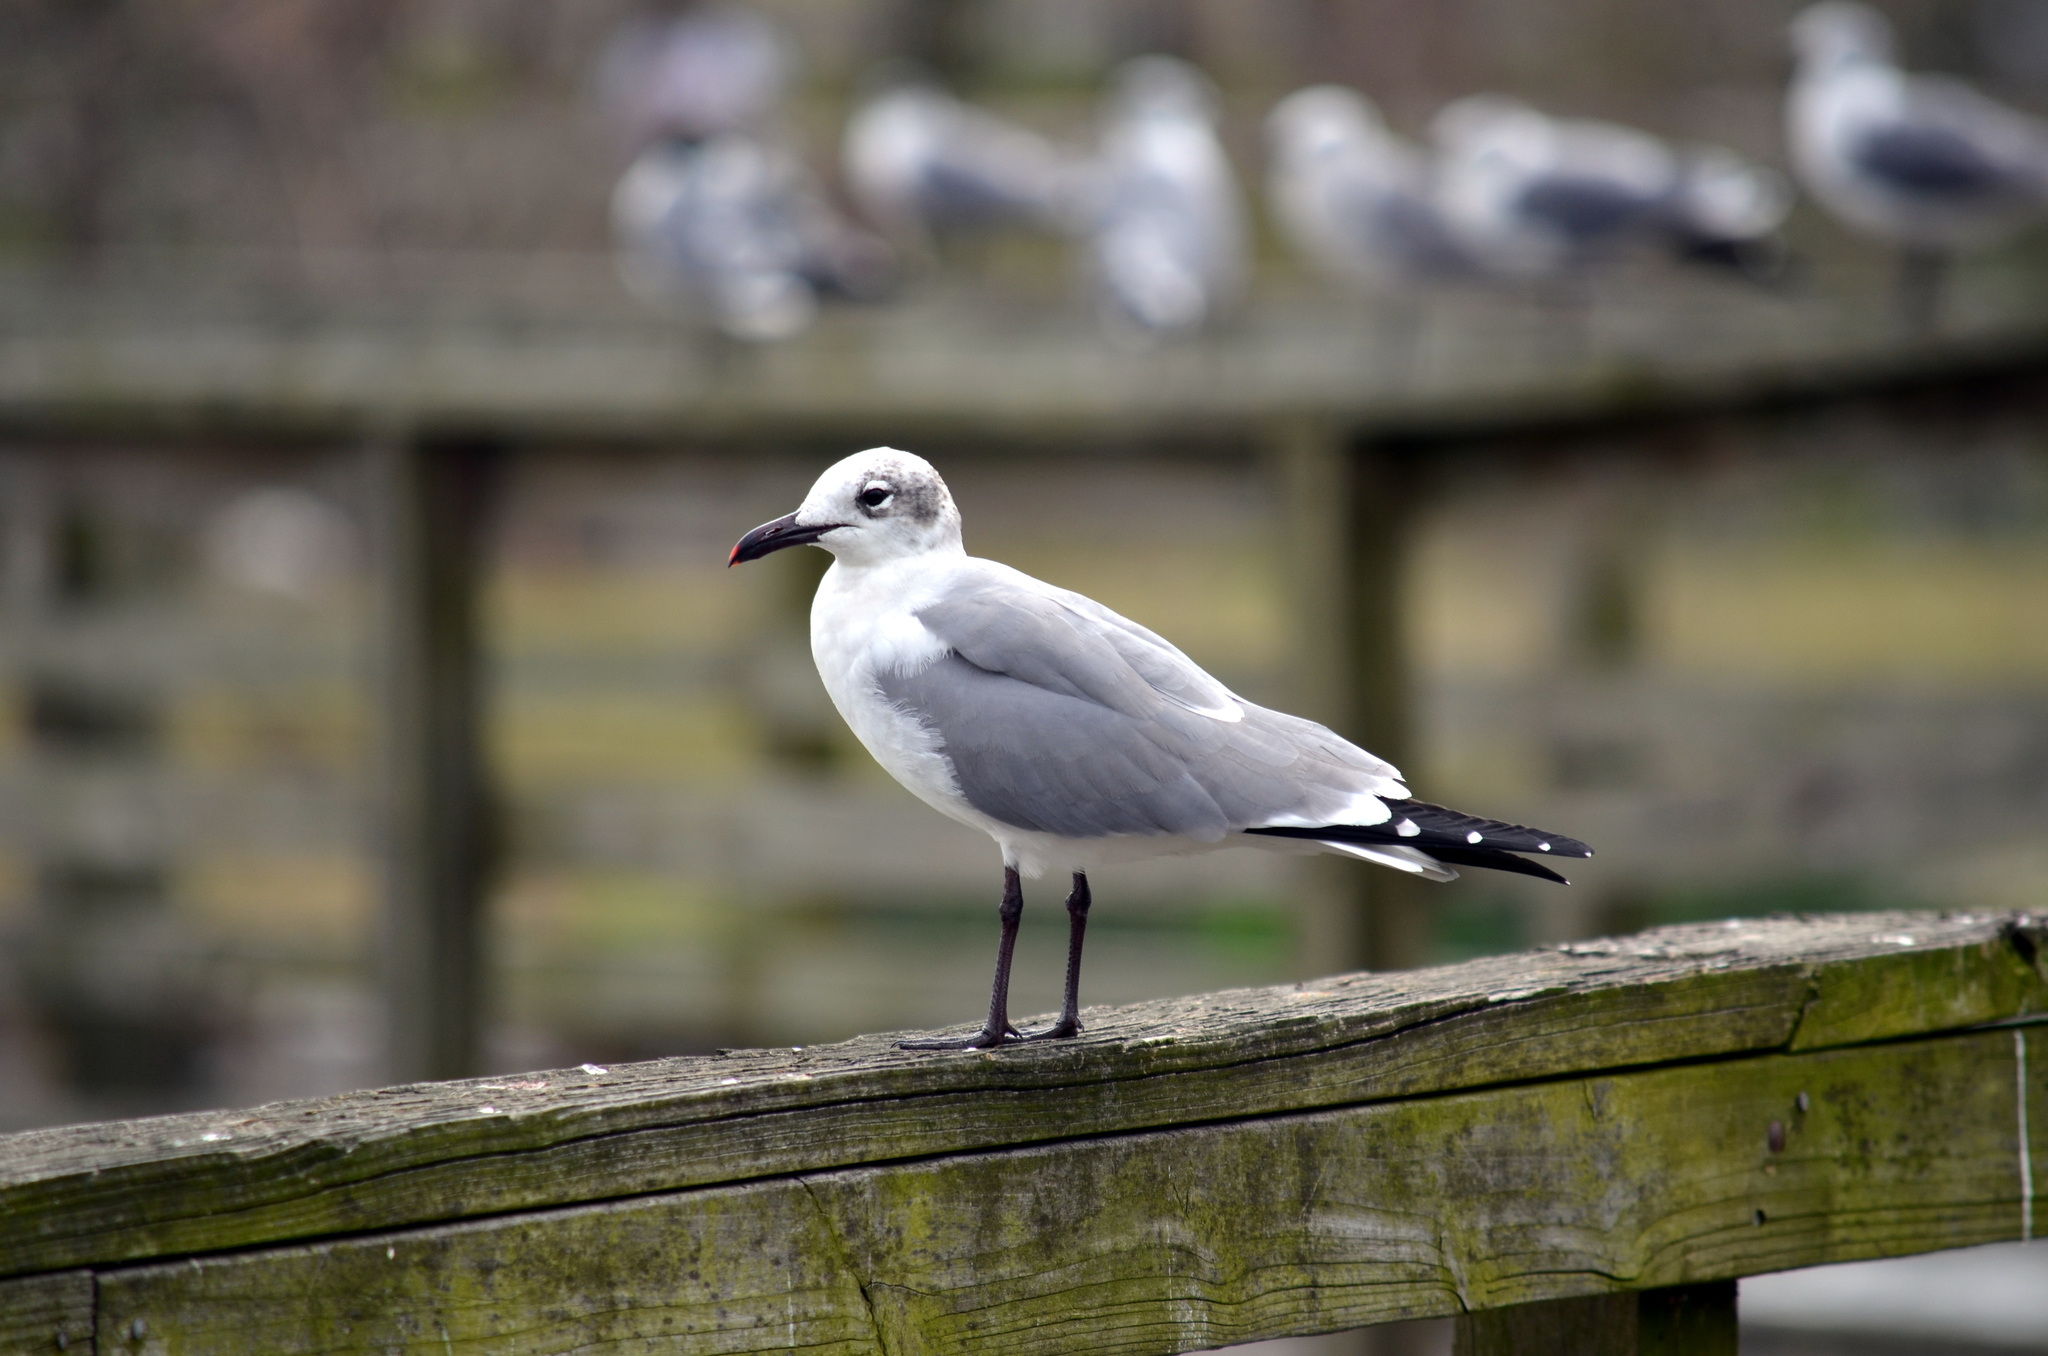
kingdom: Animalia
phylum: Chordata
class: Aves
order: Charadriiformes
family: Laridae
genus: Leucophaeus
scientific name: Leucophaeus atricilla
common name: Laughing gull
